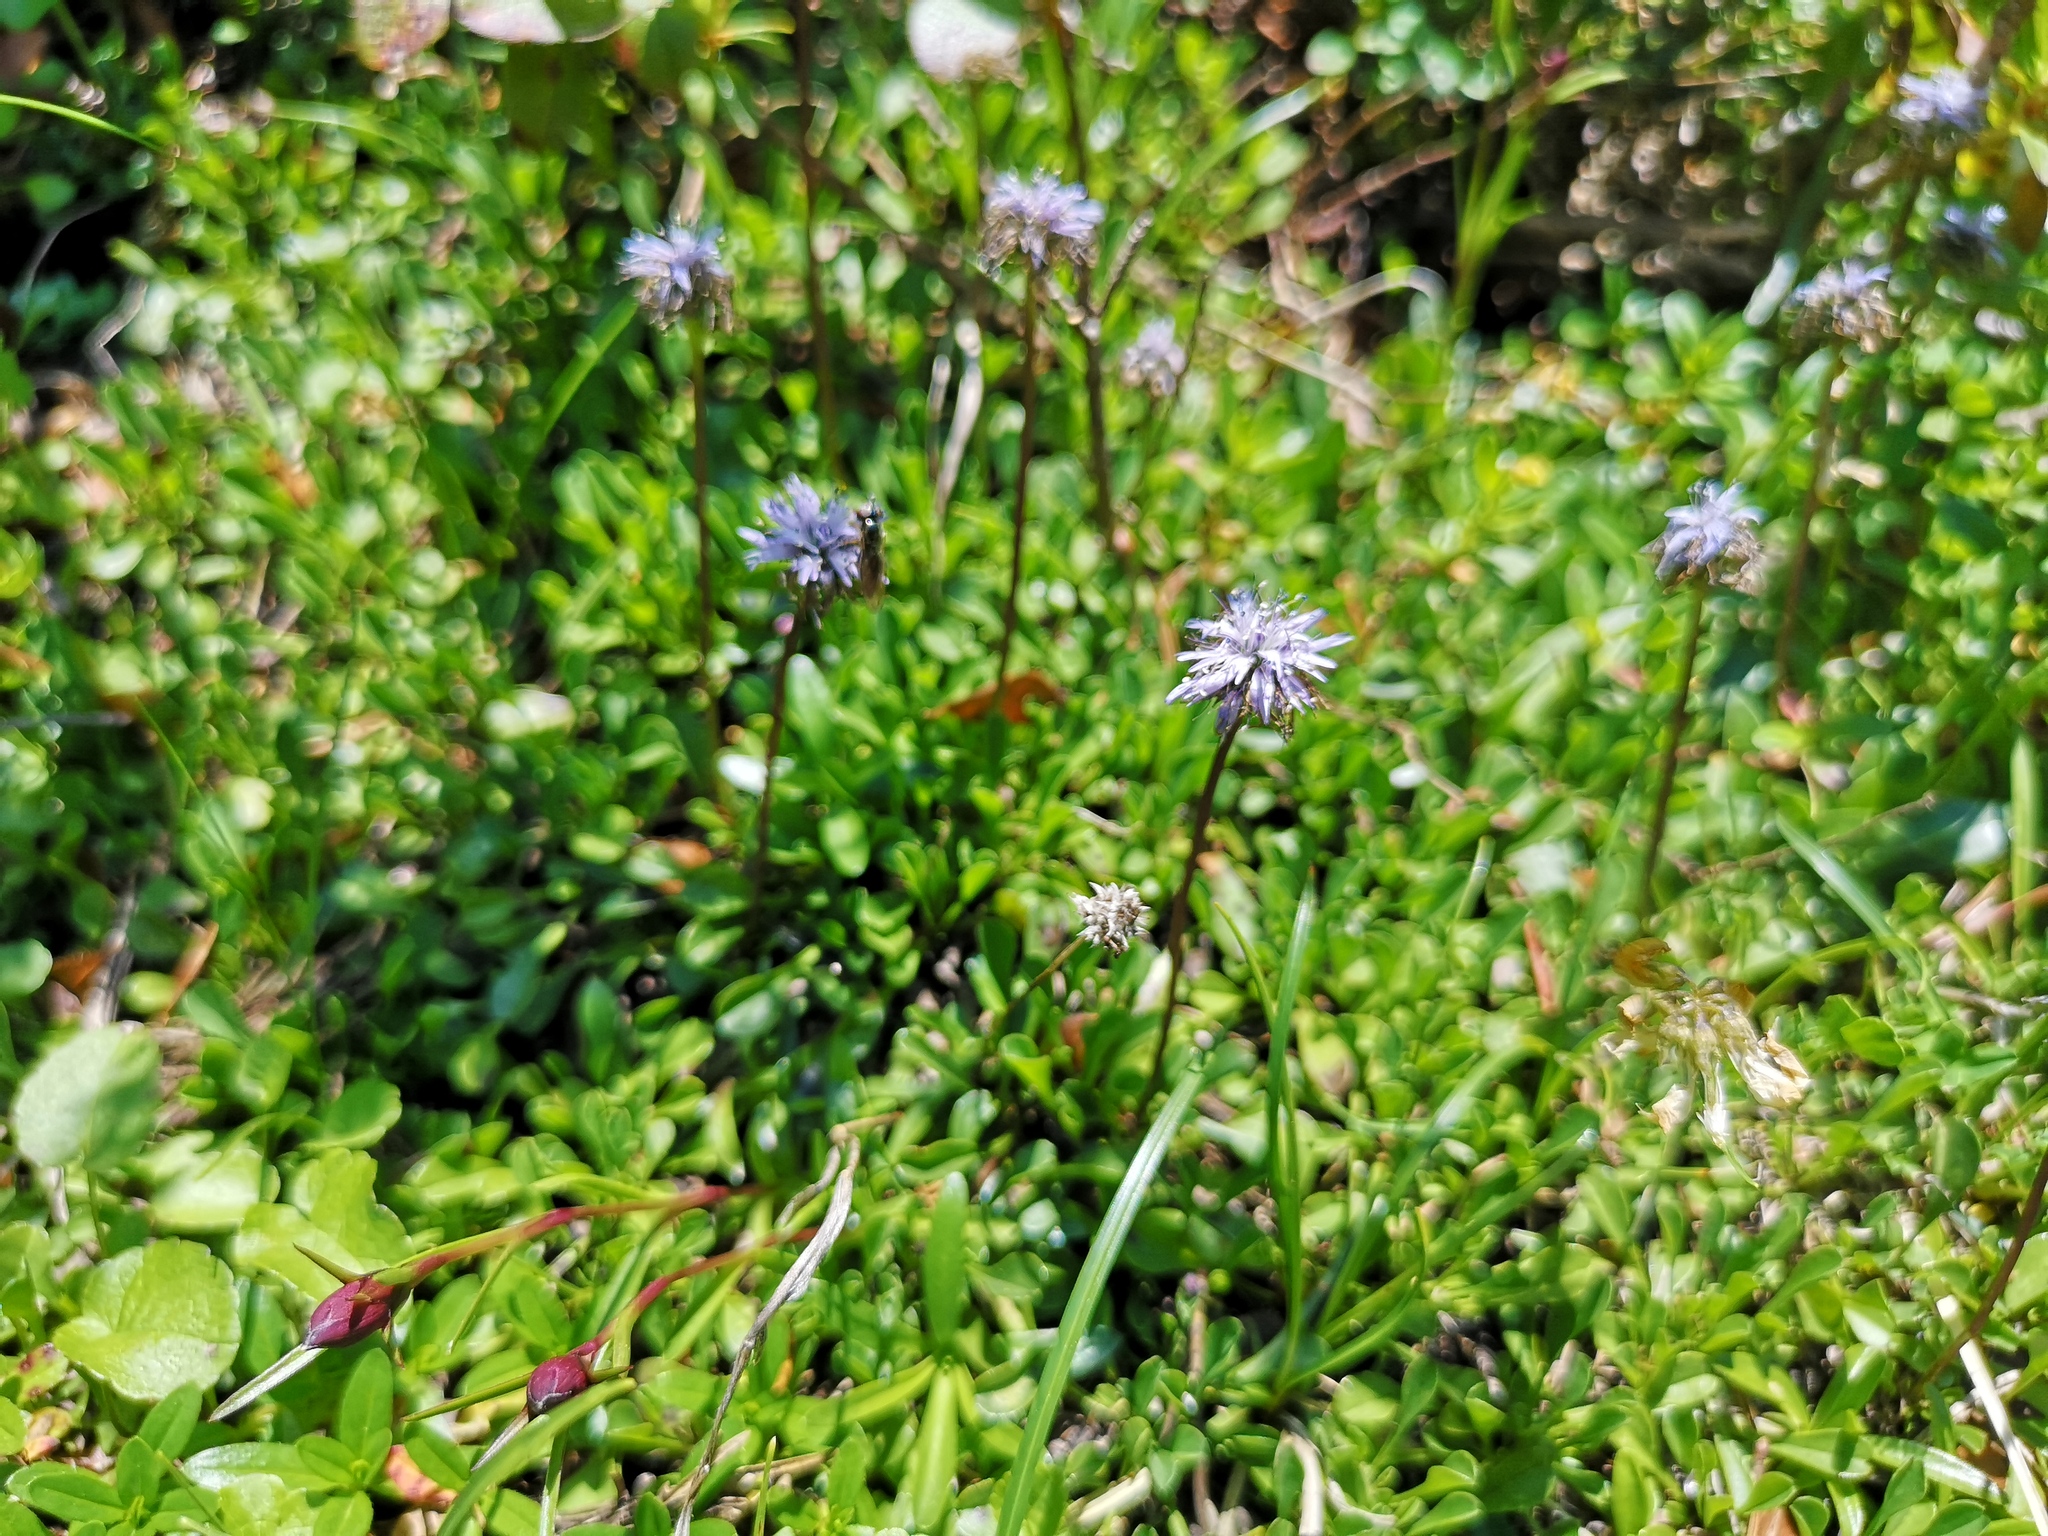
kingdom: Plantae
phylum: Tracheophyta
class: Magnoliopsida
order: Lamiales
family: Plantaginaceae
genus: Globularia
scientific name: Globularia cordifolia
